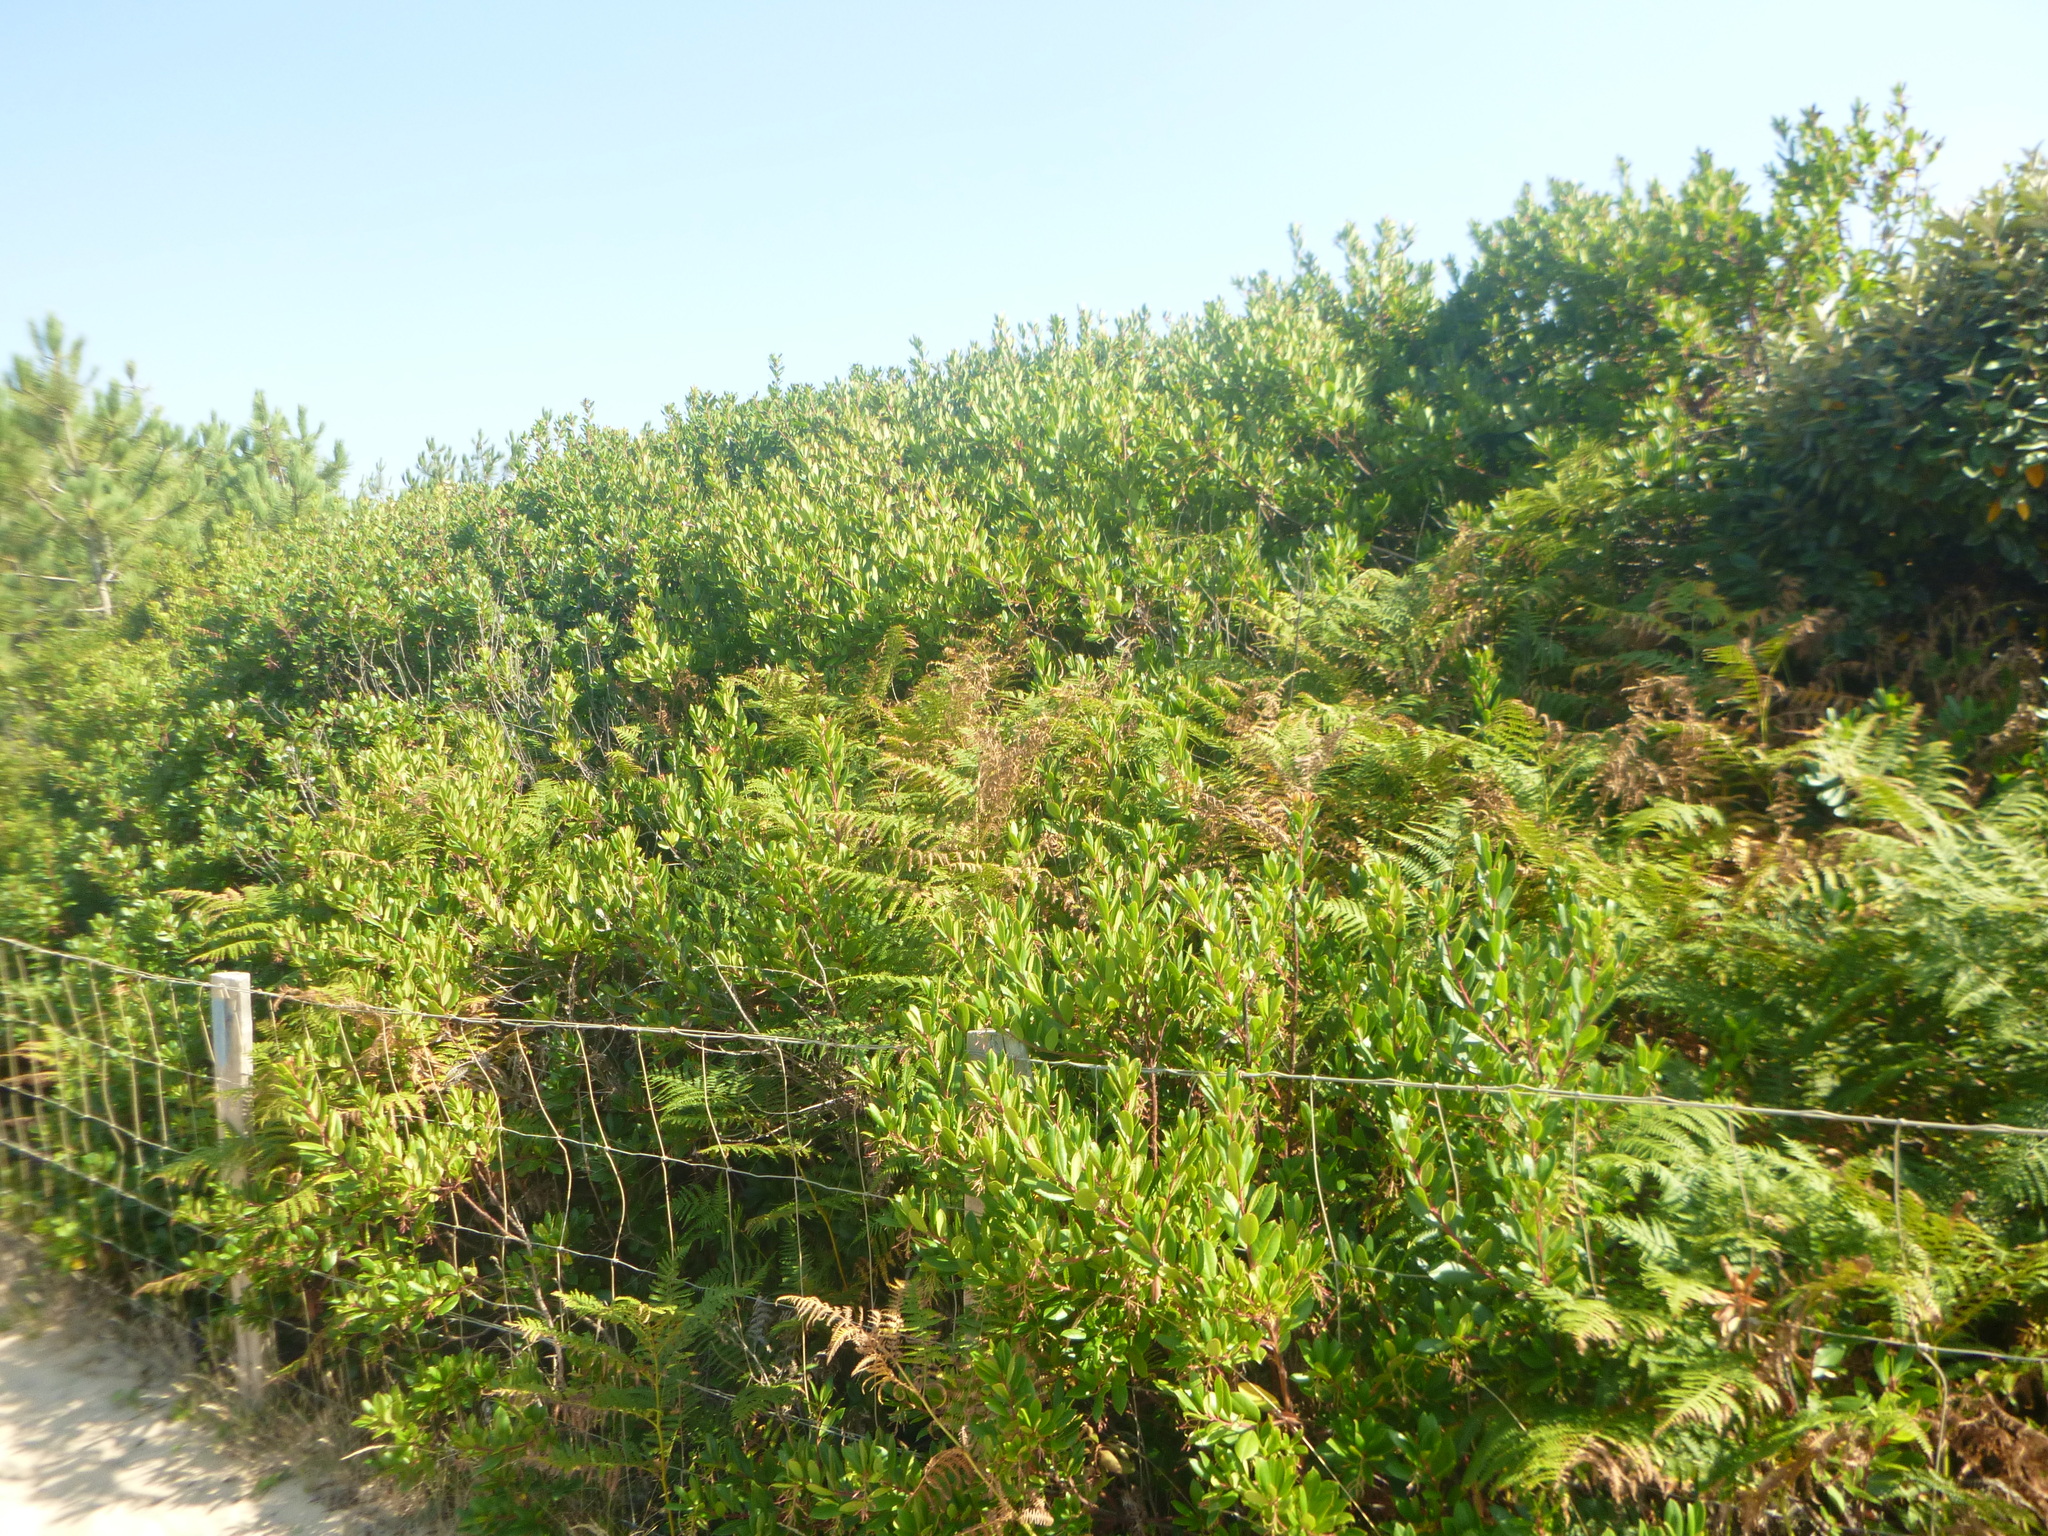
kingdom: Plantae
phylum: Tracheophyta
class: Magnoliopsida
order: Ericales
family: Ericaceae
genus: Arbutus
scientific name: Arbutus unedo
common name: Strawberry-tree
